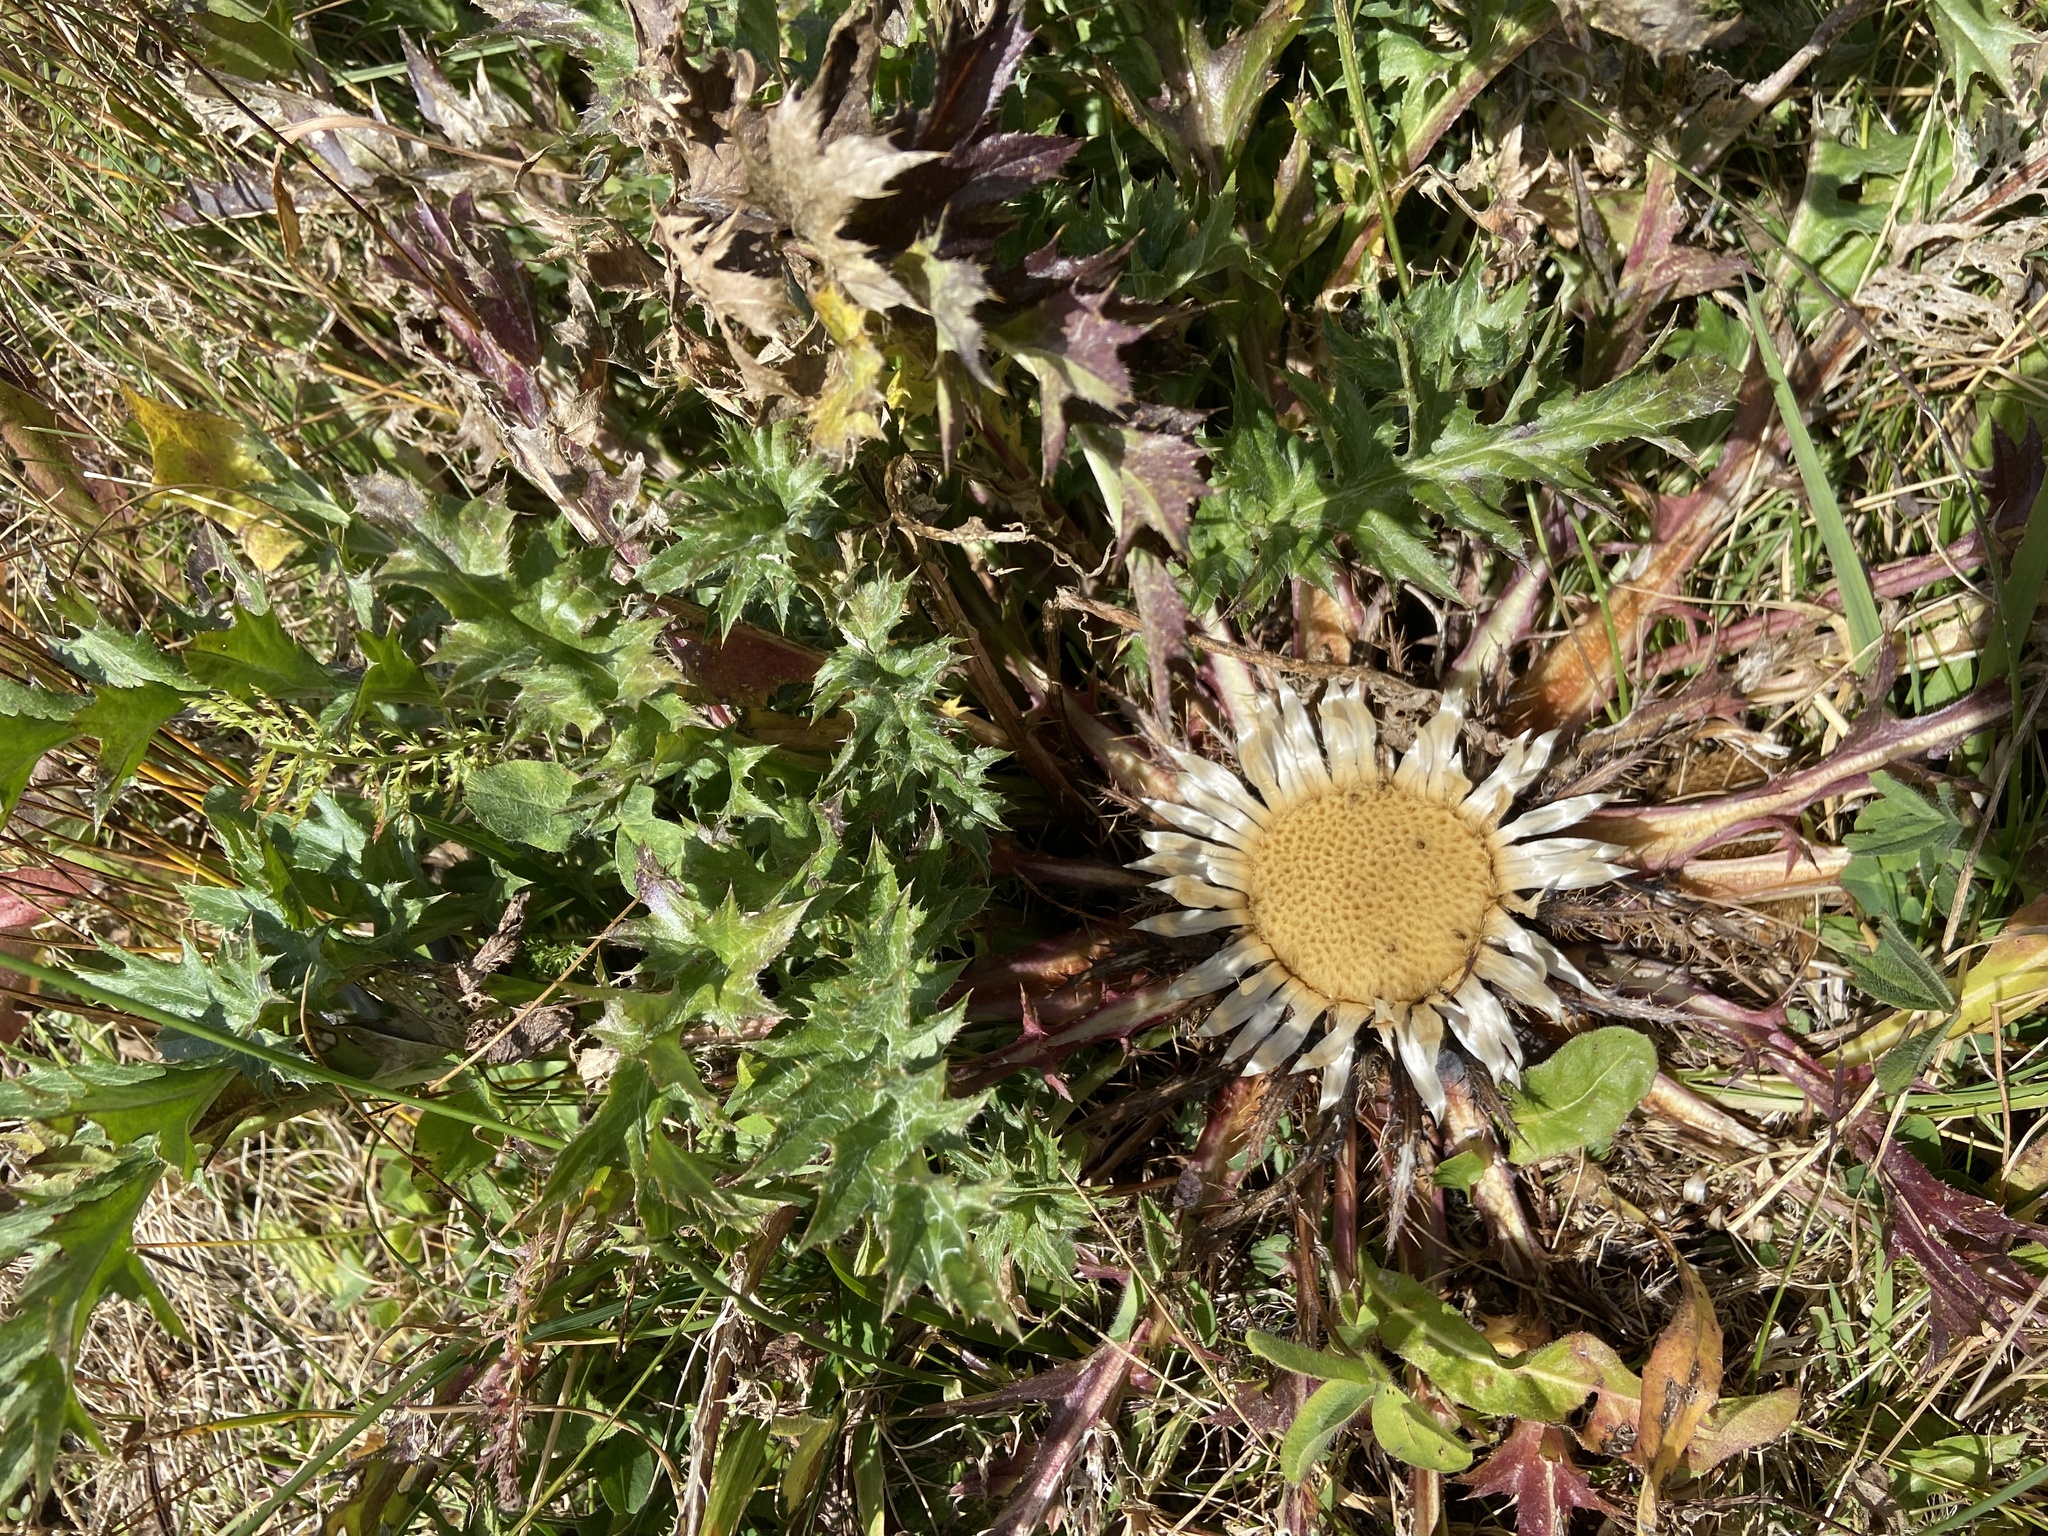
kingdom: Plantae
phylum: Tracheophyta
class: Magnoliopsida
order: Asterales
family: Asteraceae
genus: Carlina
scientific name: Carlina acaulis
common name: Stemless carline thistle
